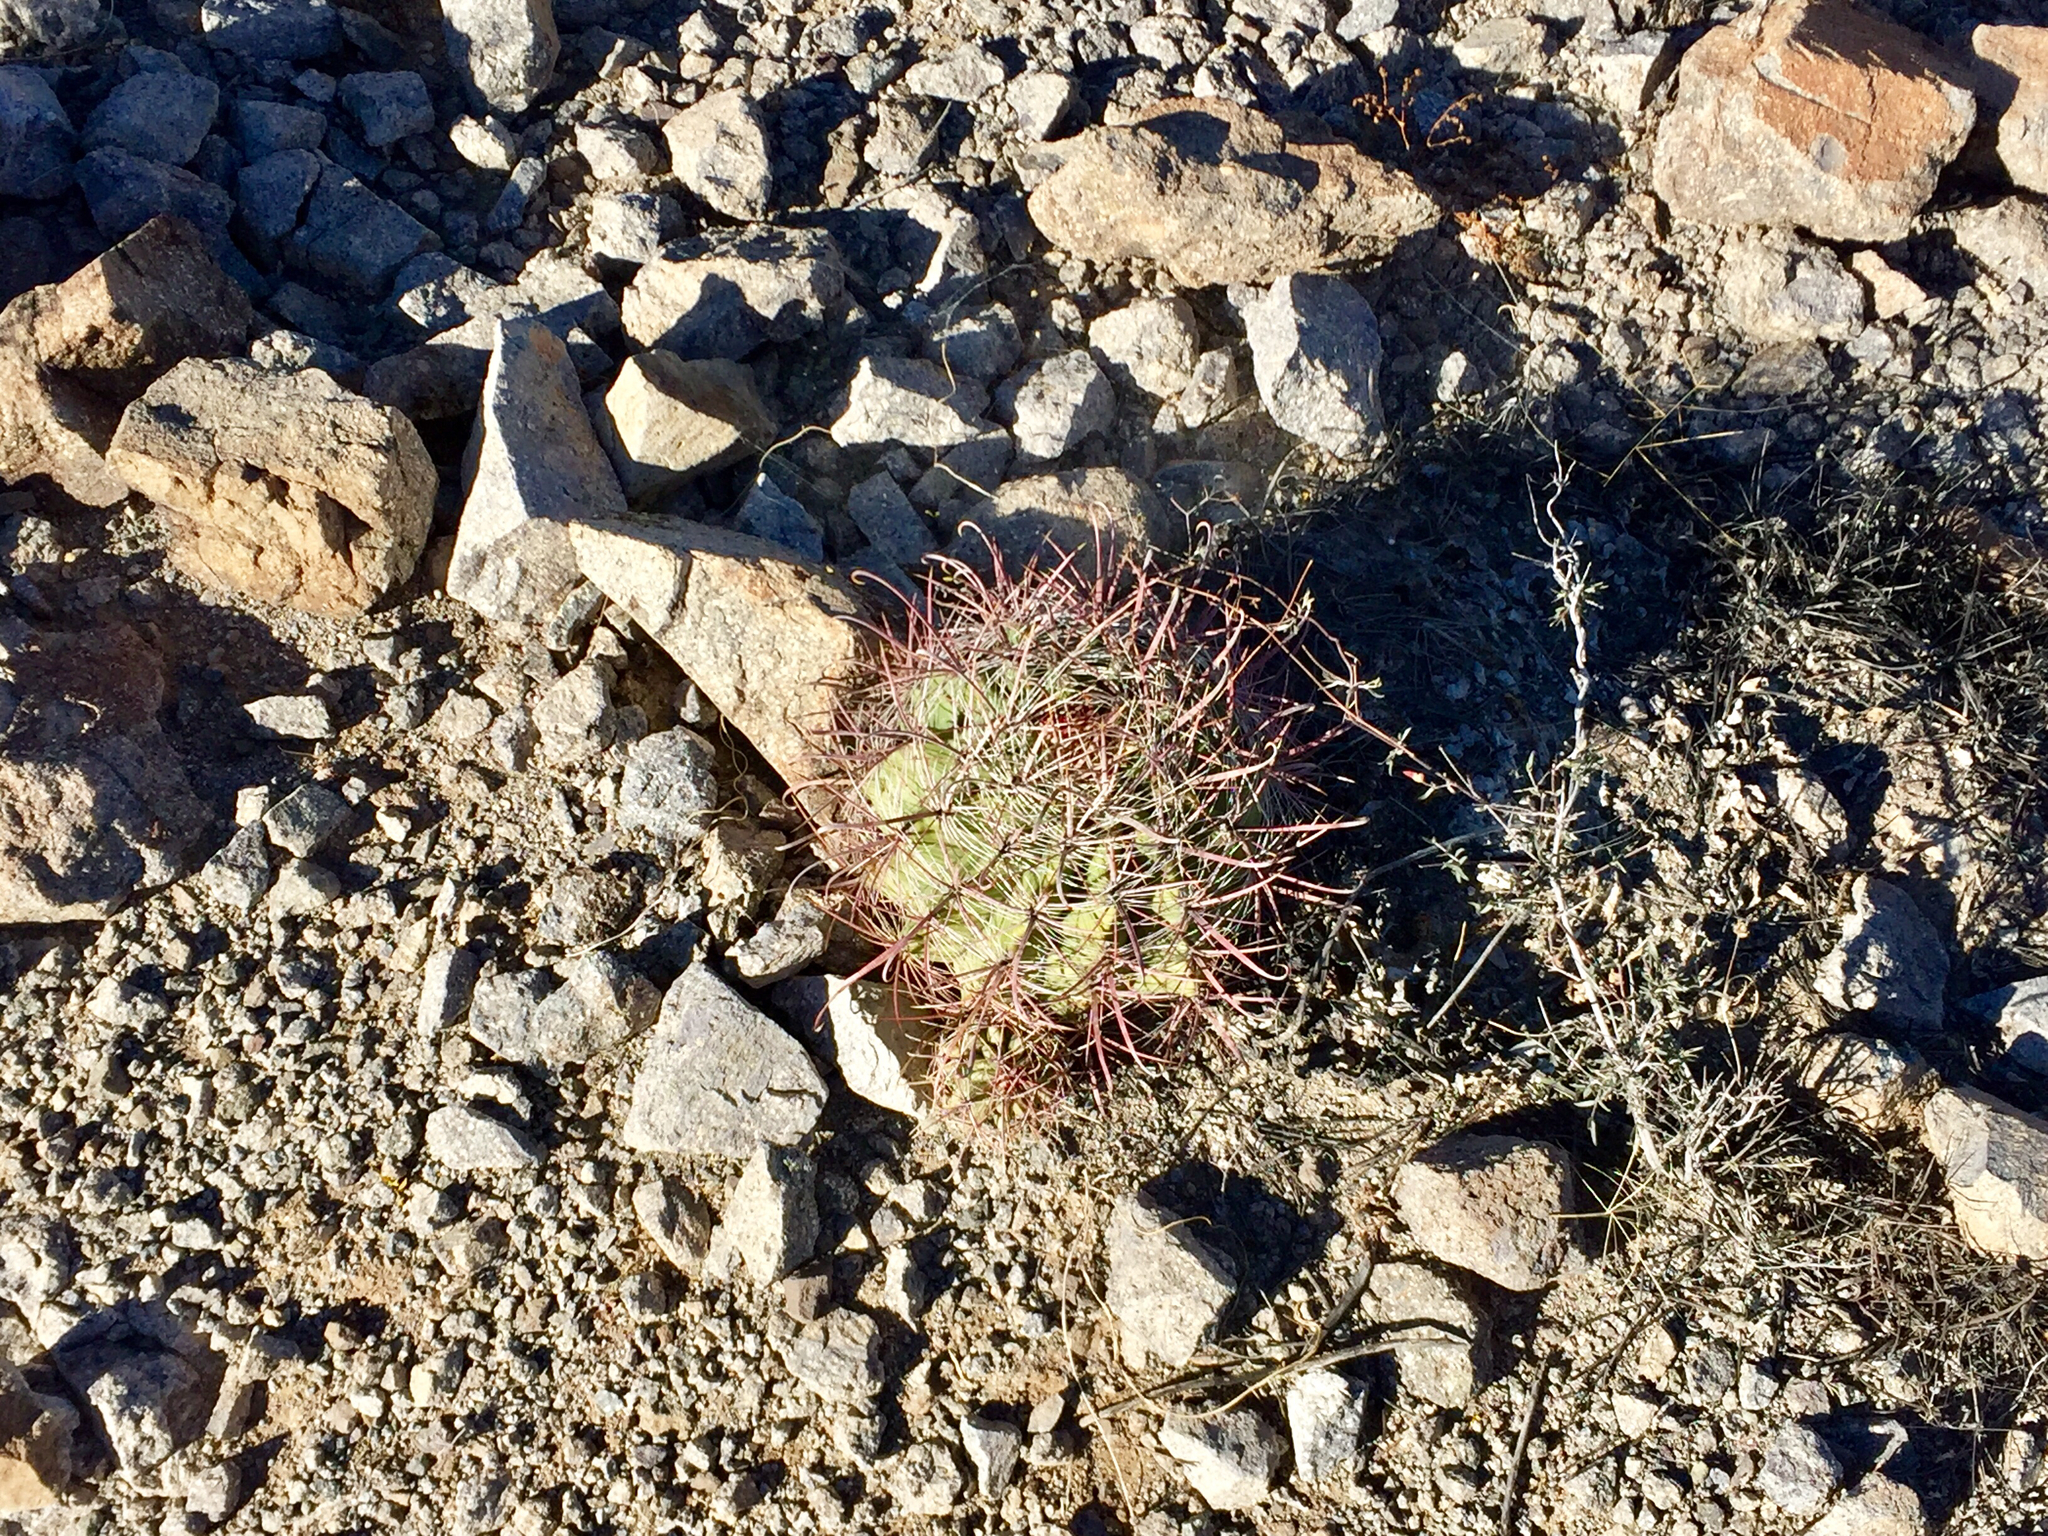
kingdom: Plantae
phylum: Tracheophyta
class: Magnoliopsida
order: Caryophyllales
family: Cactaceae
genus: Ferocactus
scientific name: Ferocactus wislizeni
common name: Candy barrel cactus
